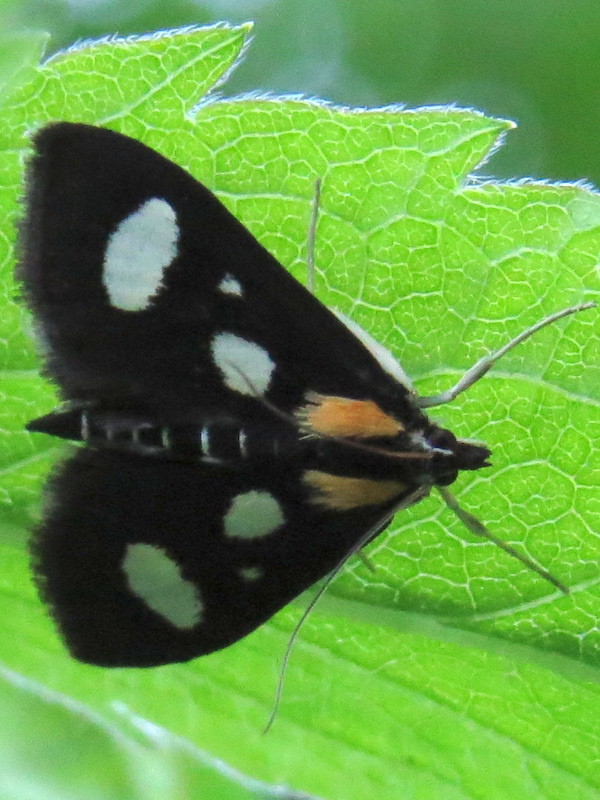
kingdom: Animalia
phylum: Arthropoda
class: Insecta
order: Lepidoptera
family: Crambidae
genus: Anania
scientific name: Anania funebris
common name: White-spotted sable moth
